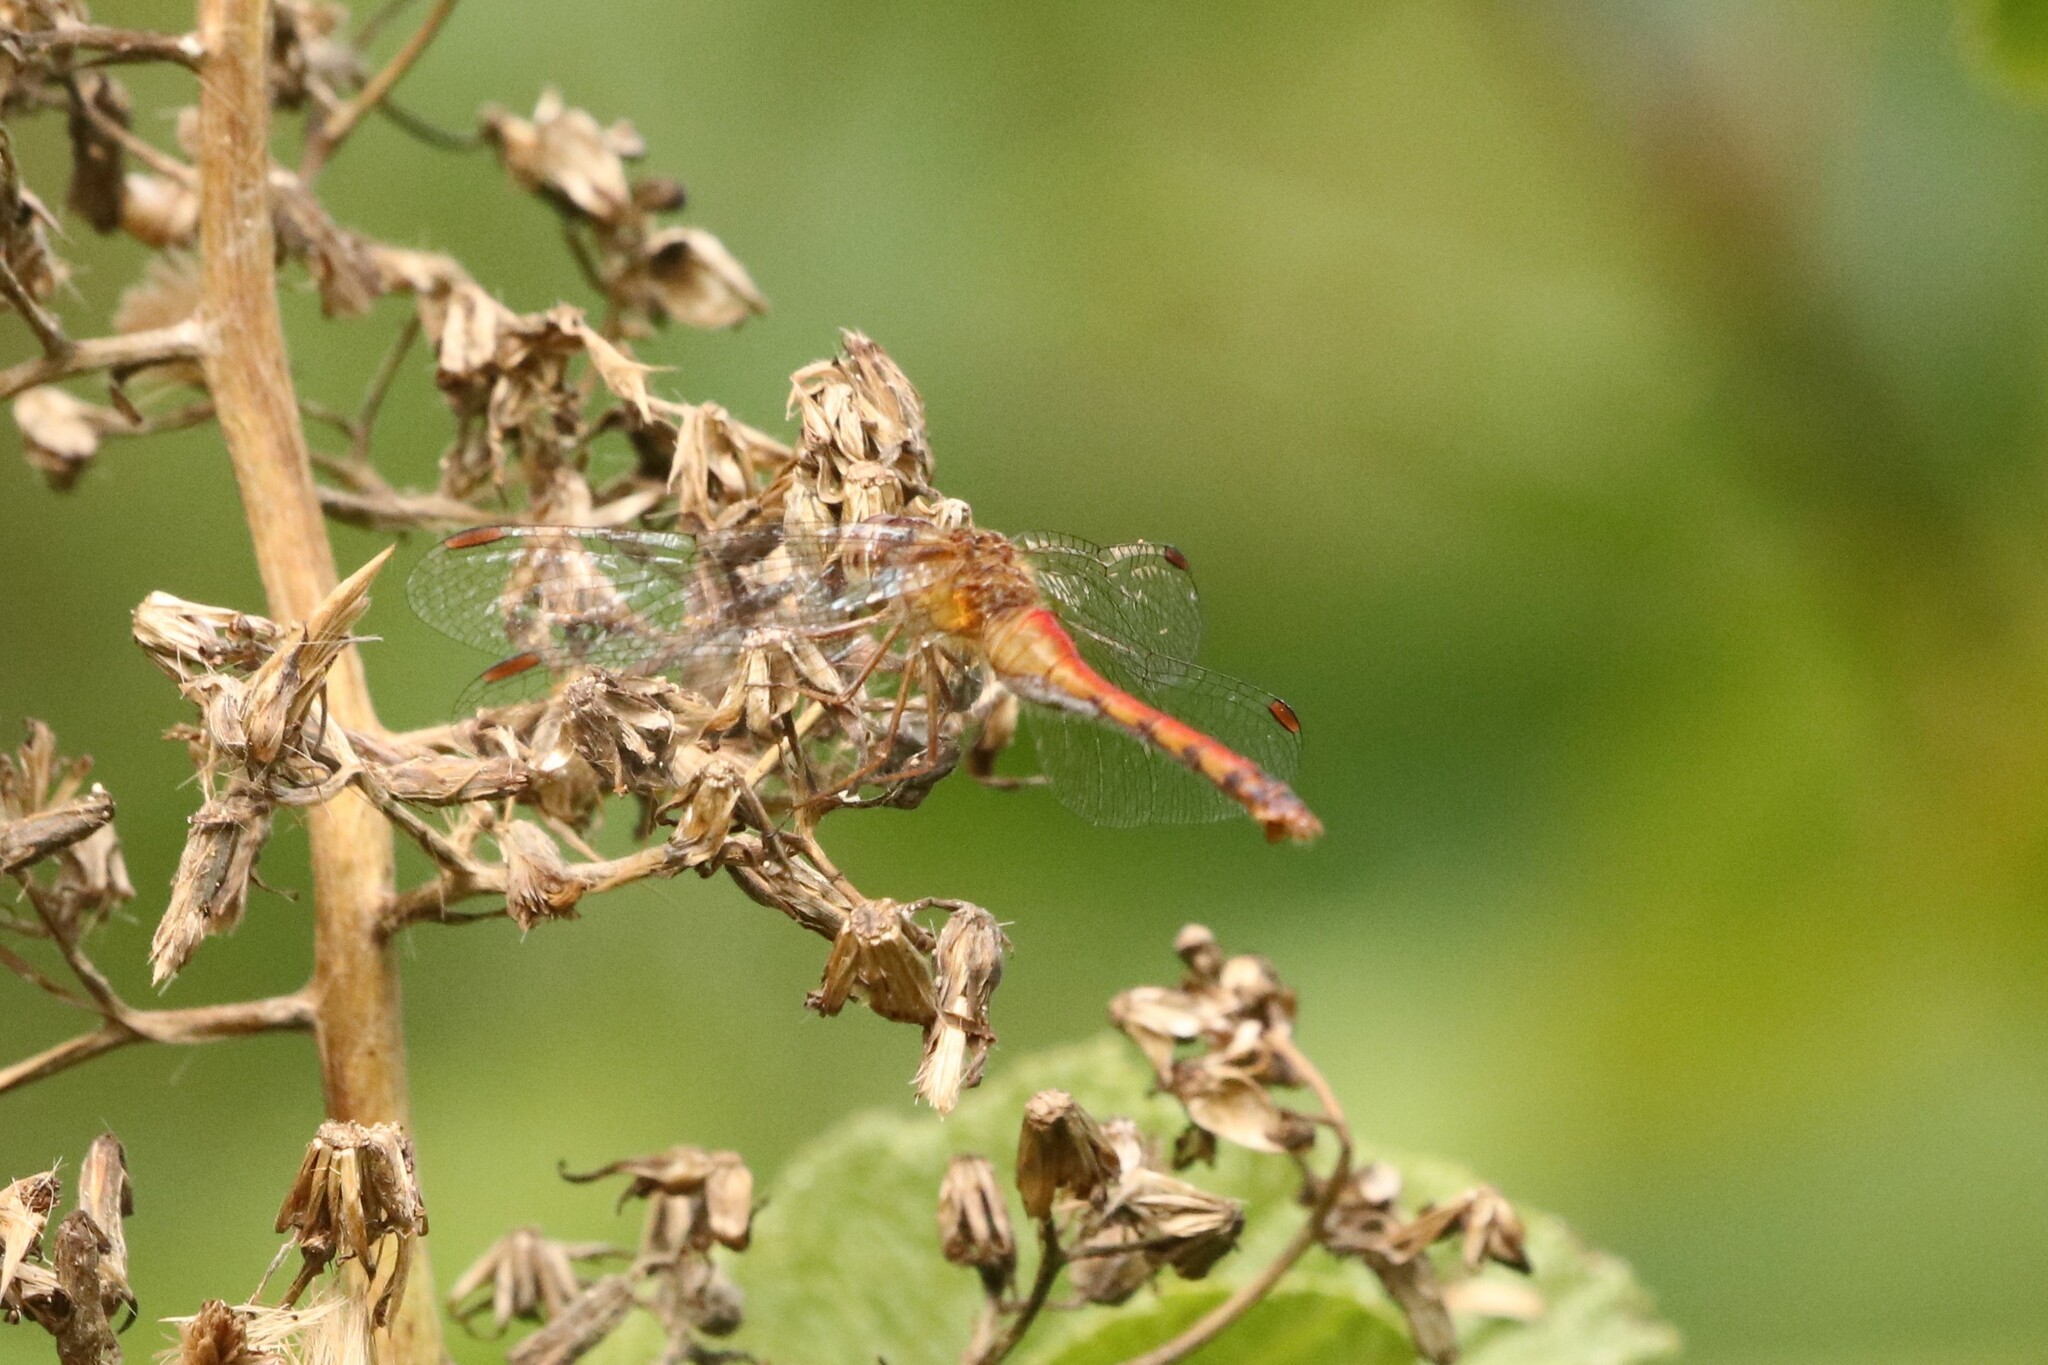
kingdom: Animalia
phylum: Arthropoda
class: Insecta
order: Odonata
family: Libellulidae
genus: Sympetrum
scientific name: Sympetrum vicinum
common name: Autumn meadowhawk
